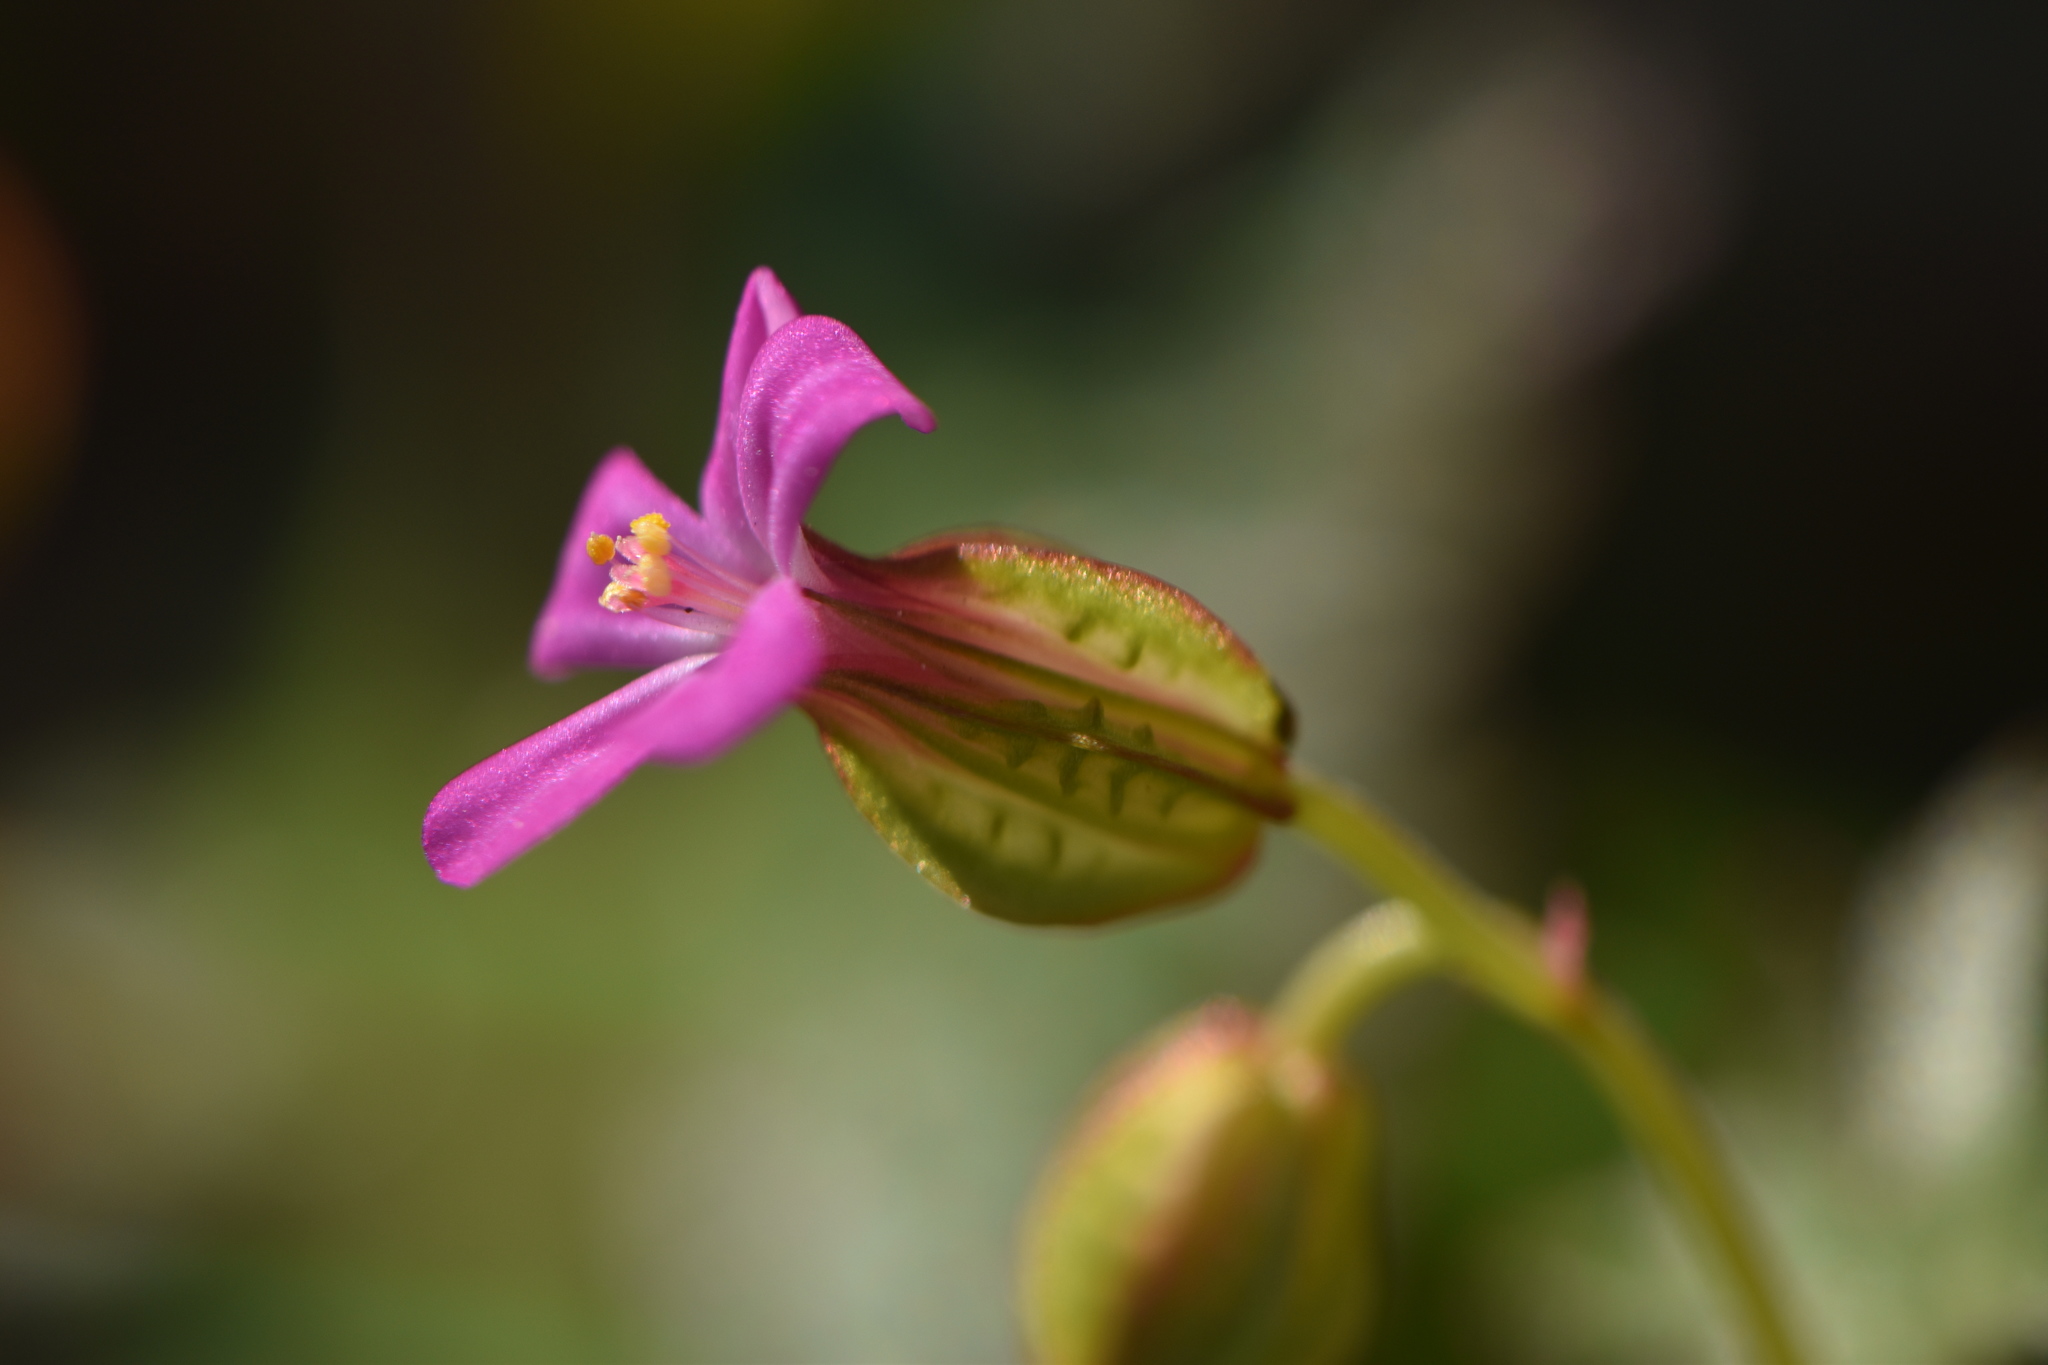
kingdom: Plantae
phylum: Tracheophyta
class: Magnoliopsida
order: Geraniales
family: Geraniaceae
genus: Geranium
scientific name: Geranium lucidum
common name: Shining crane's-bill
